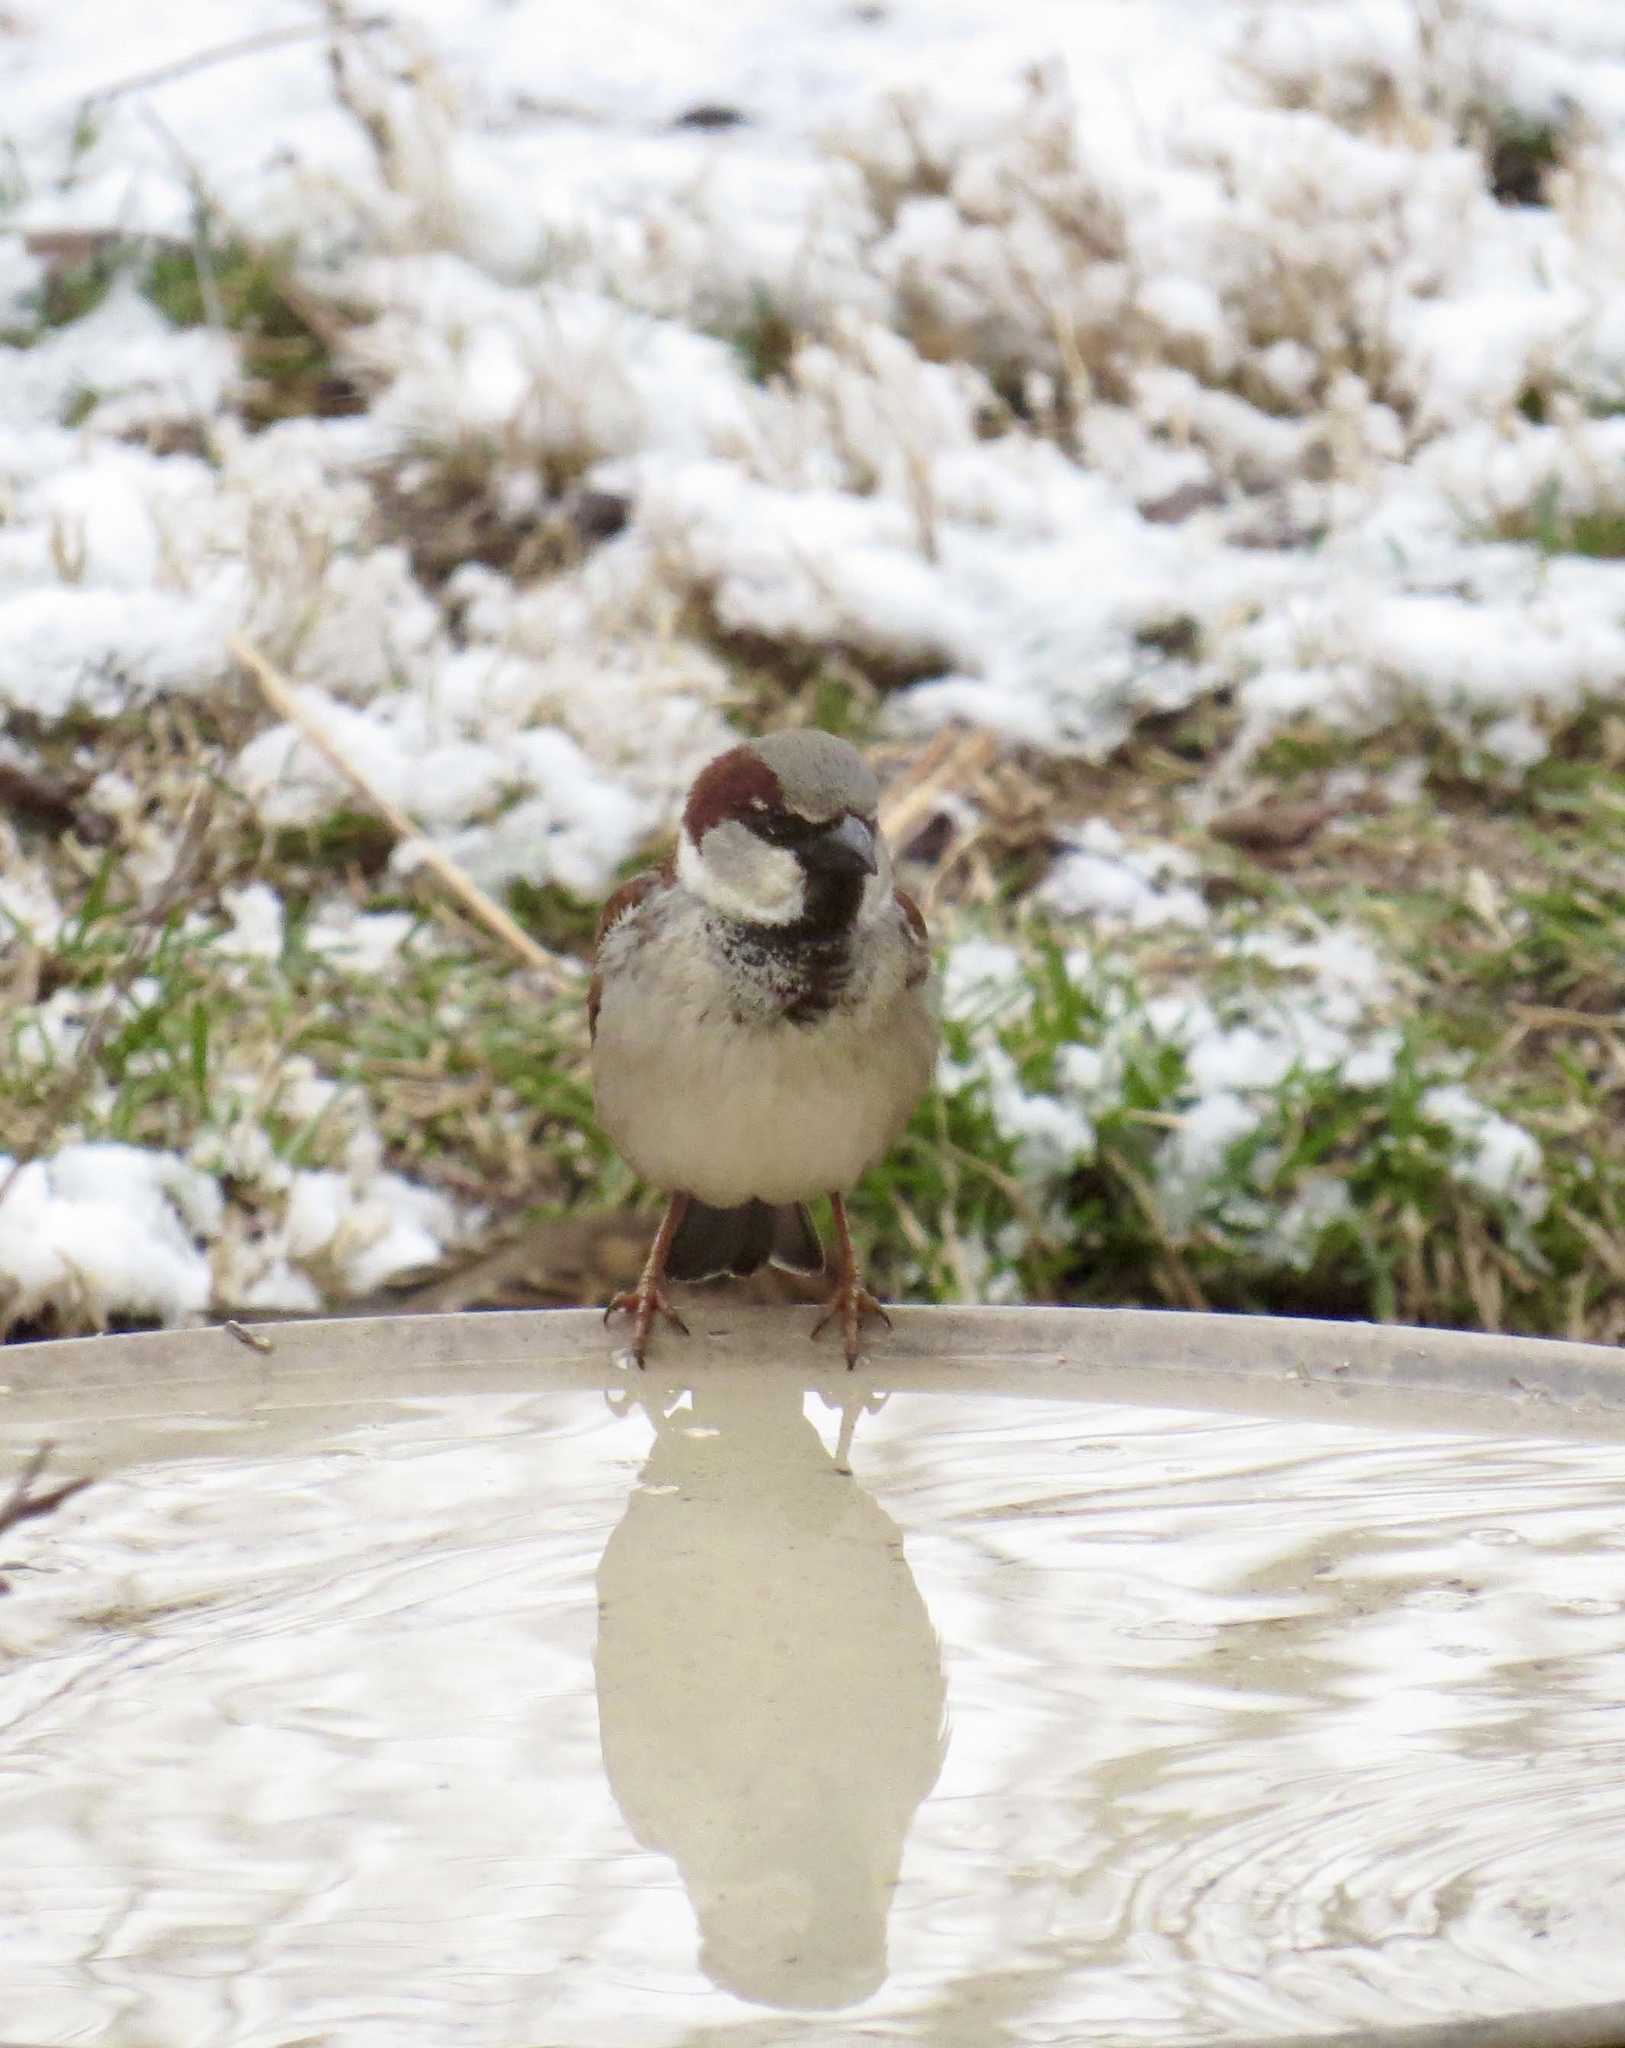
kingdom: Animalia
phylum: Chordata
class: Aves
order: Passeriformes
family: Passeridae
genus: Passer
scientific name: Passer domesticus
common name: House sparrow
